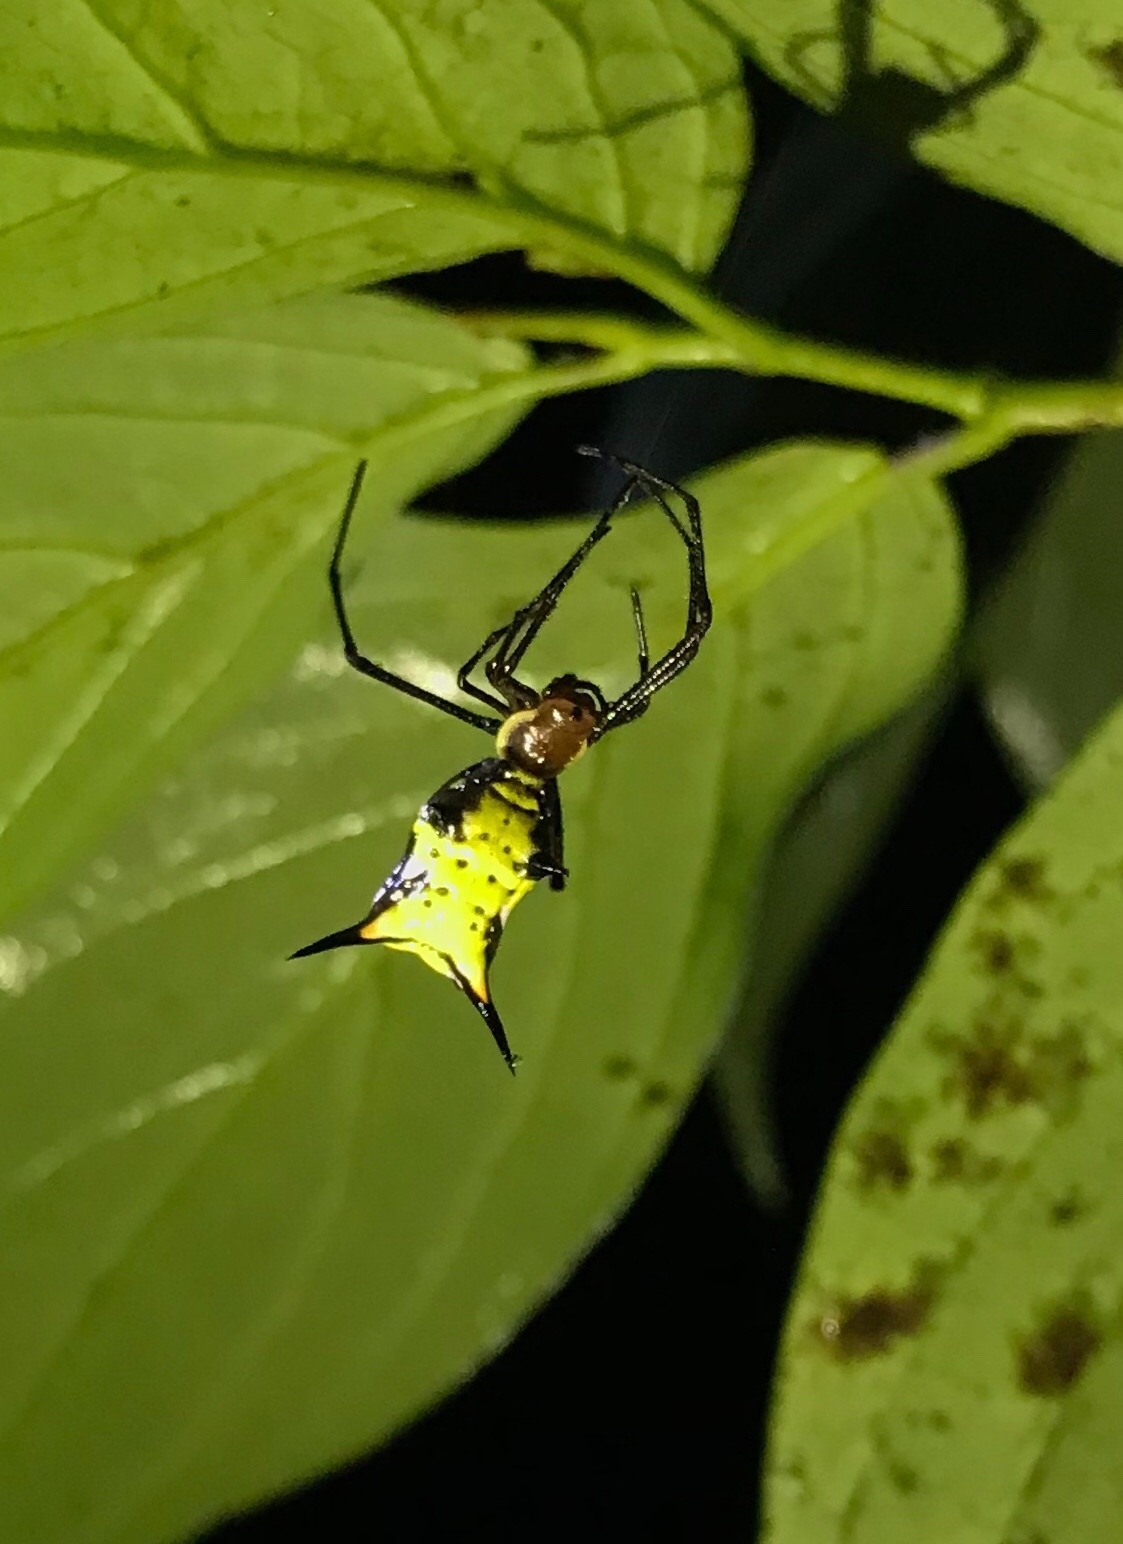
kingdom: Animalia
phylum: Arthropoda
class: Arachnida
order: Araneae
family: Araneidae
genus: Micrathena
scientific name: Micrathena miles
